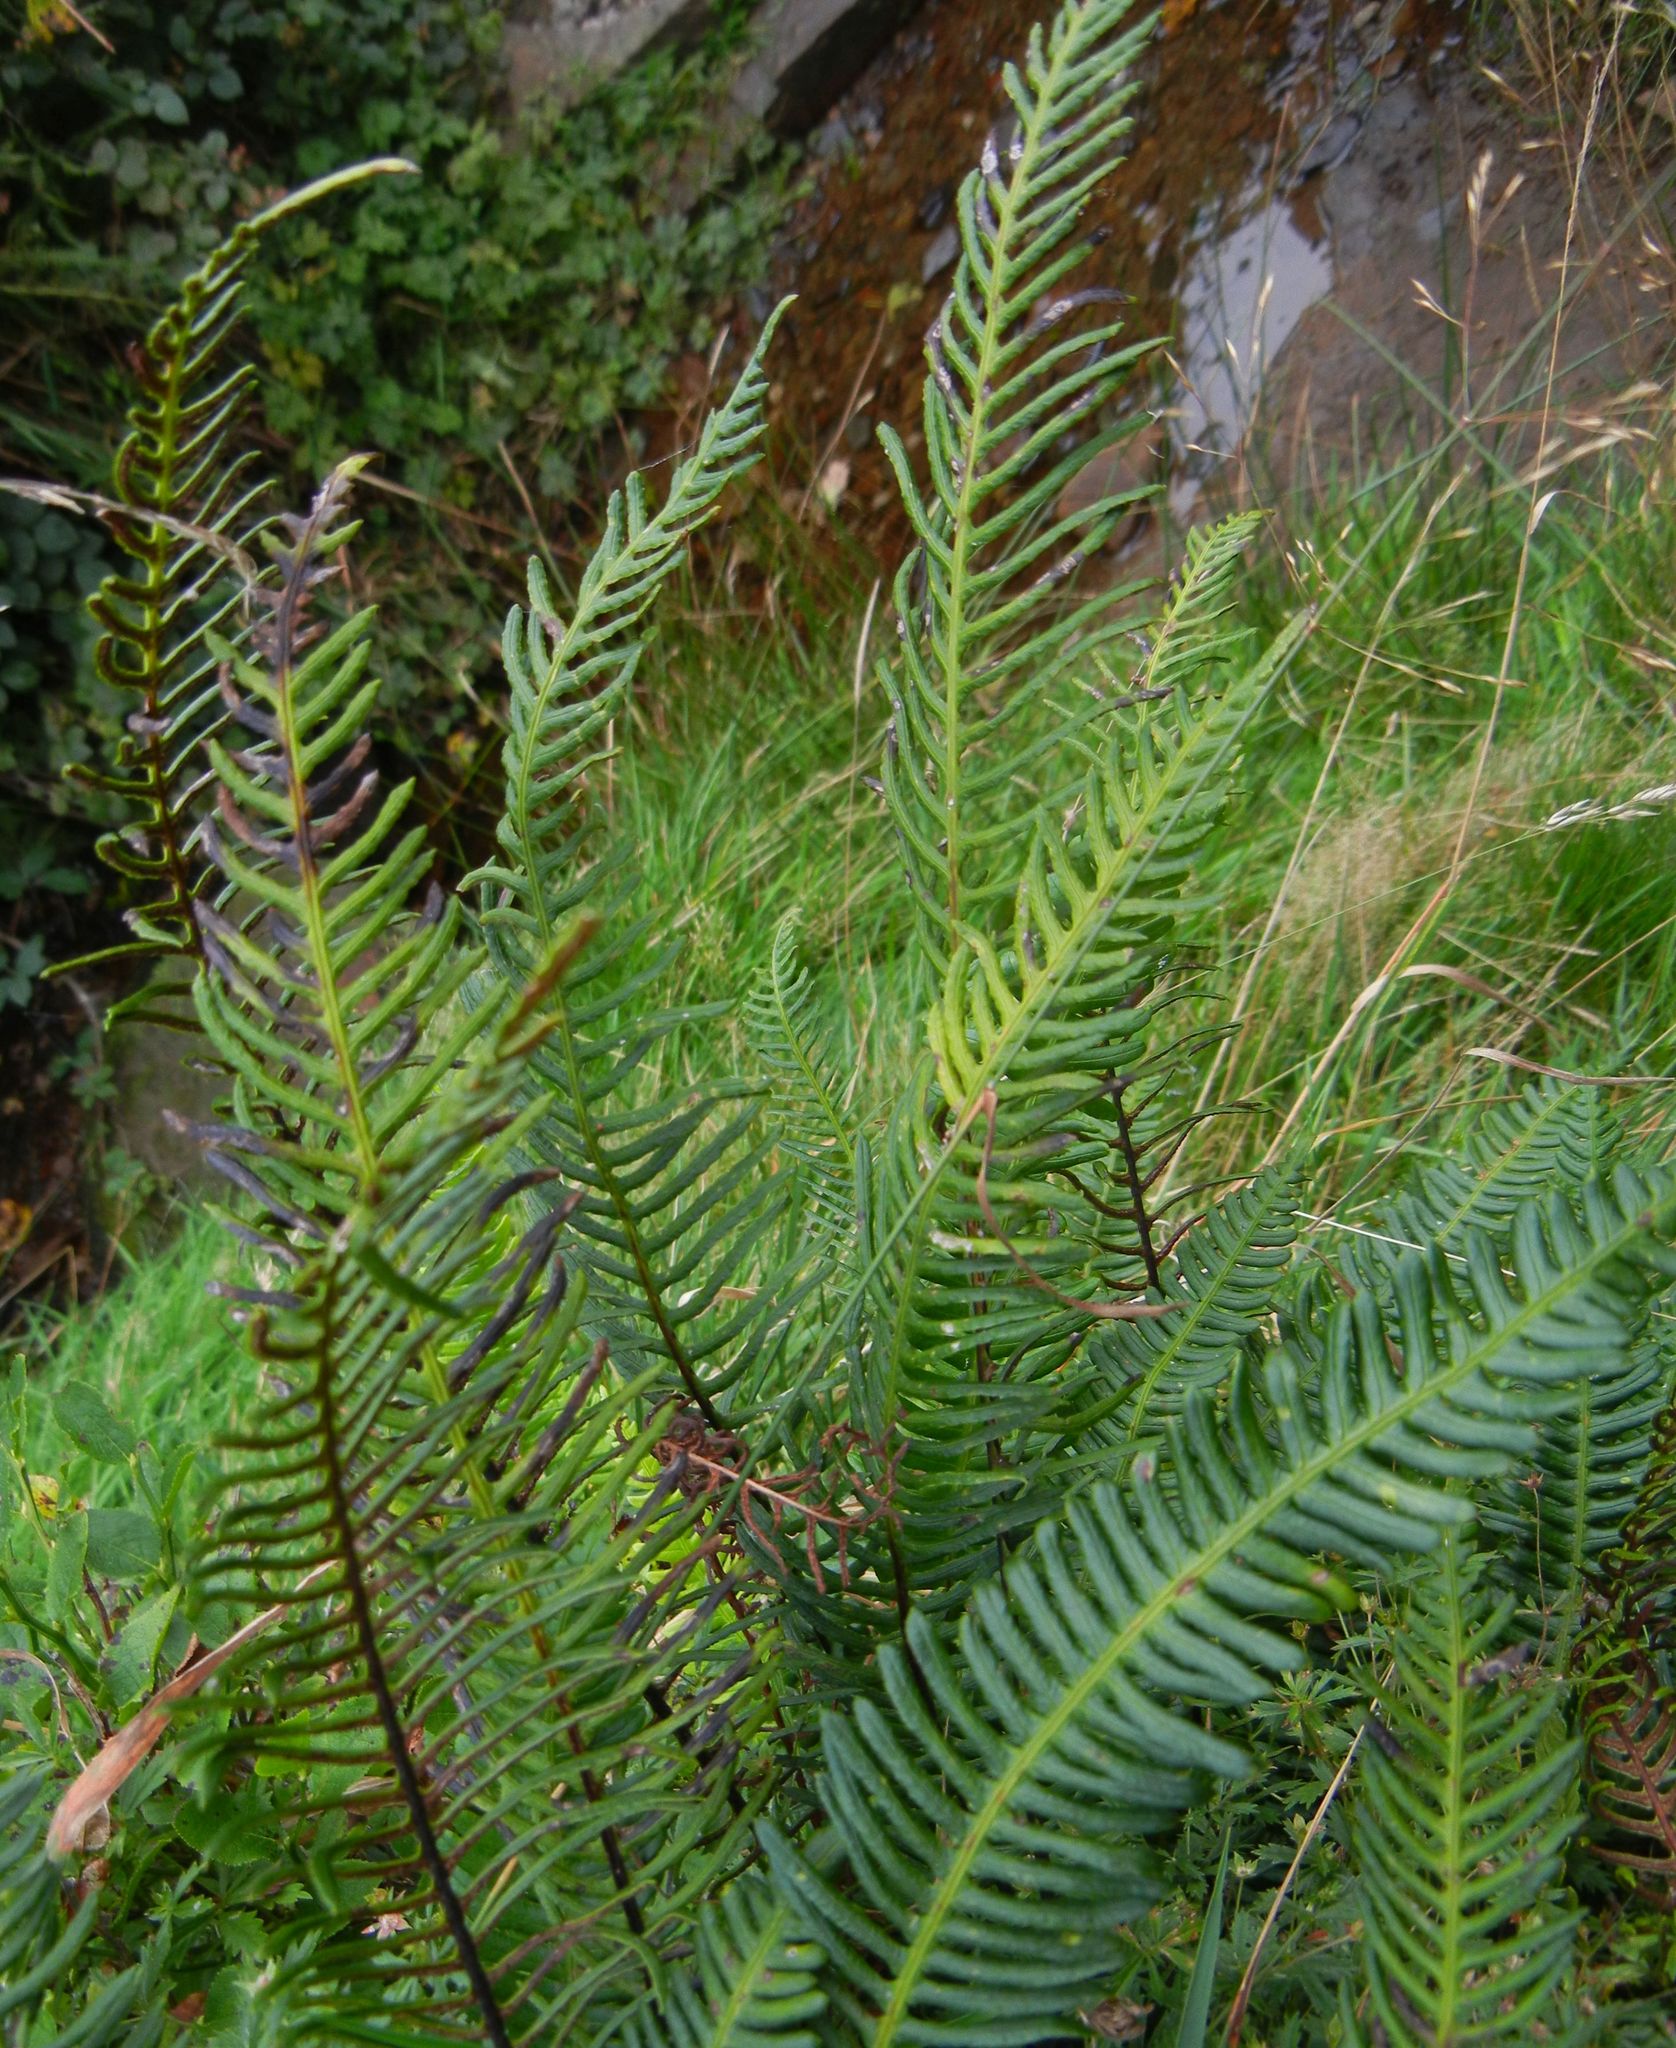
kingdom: Plantae
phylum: Tracheophyta
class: Polypodiopsida
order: Polypodiales
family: Blechnaceae
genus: Struthiopteris
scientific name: Struthiopteris spicant
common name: Deer fern
